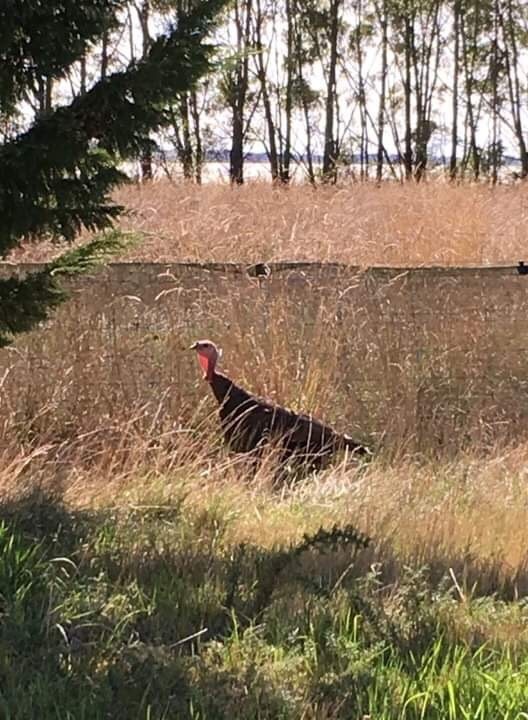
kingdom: Animalia
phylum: Chordata
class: Aves
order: Galliformes
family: Phasianidae
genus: Meleagris
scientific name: Meleagris gallopavo
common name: Wild turkey
